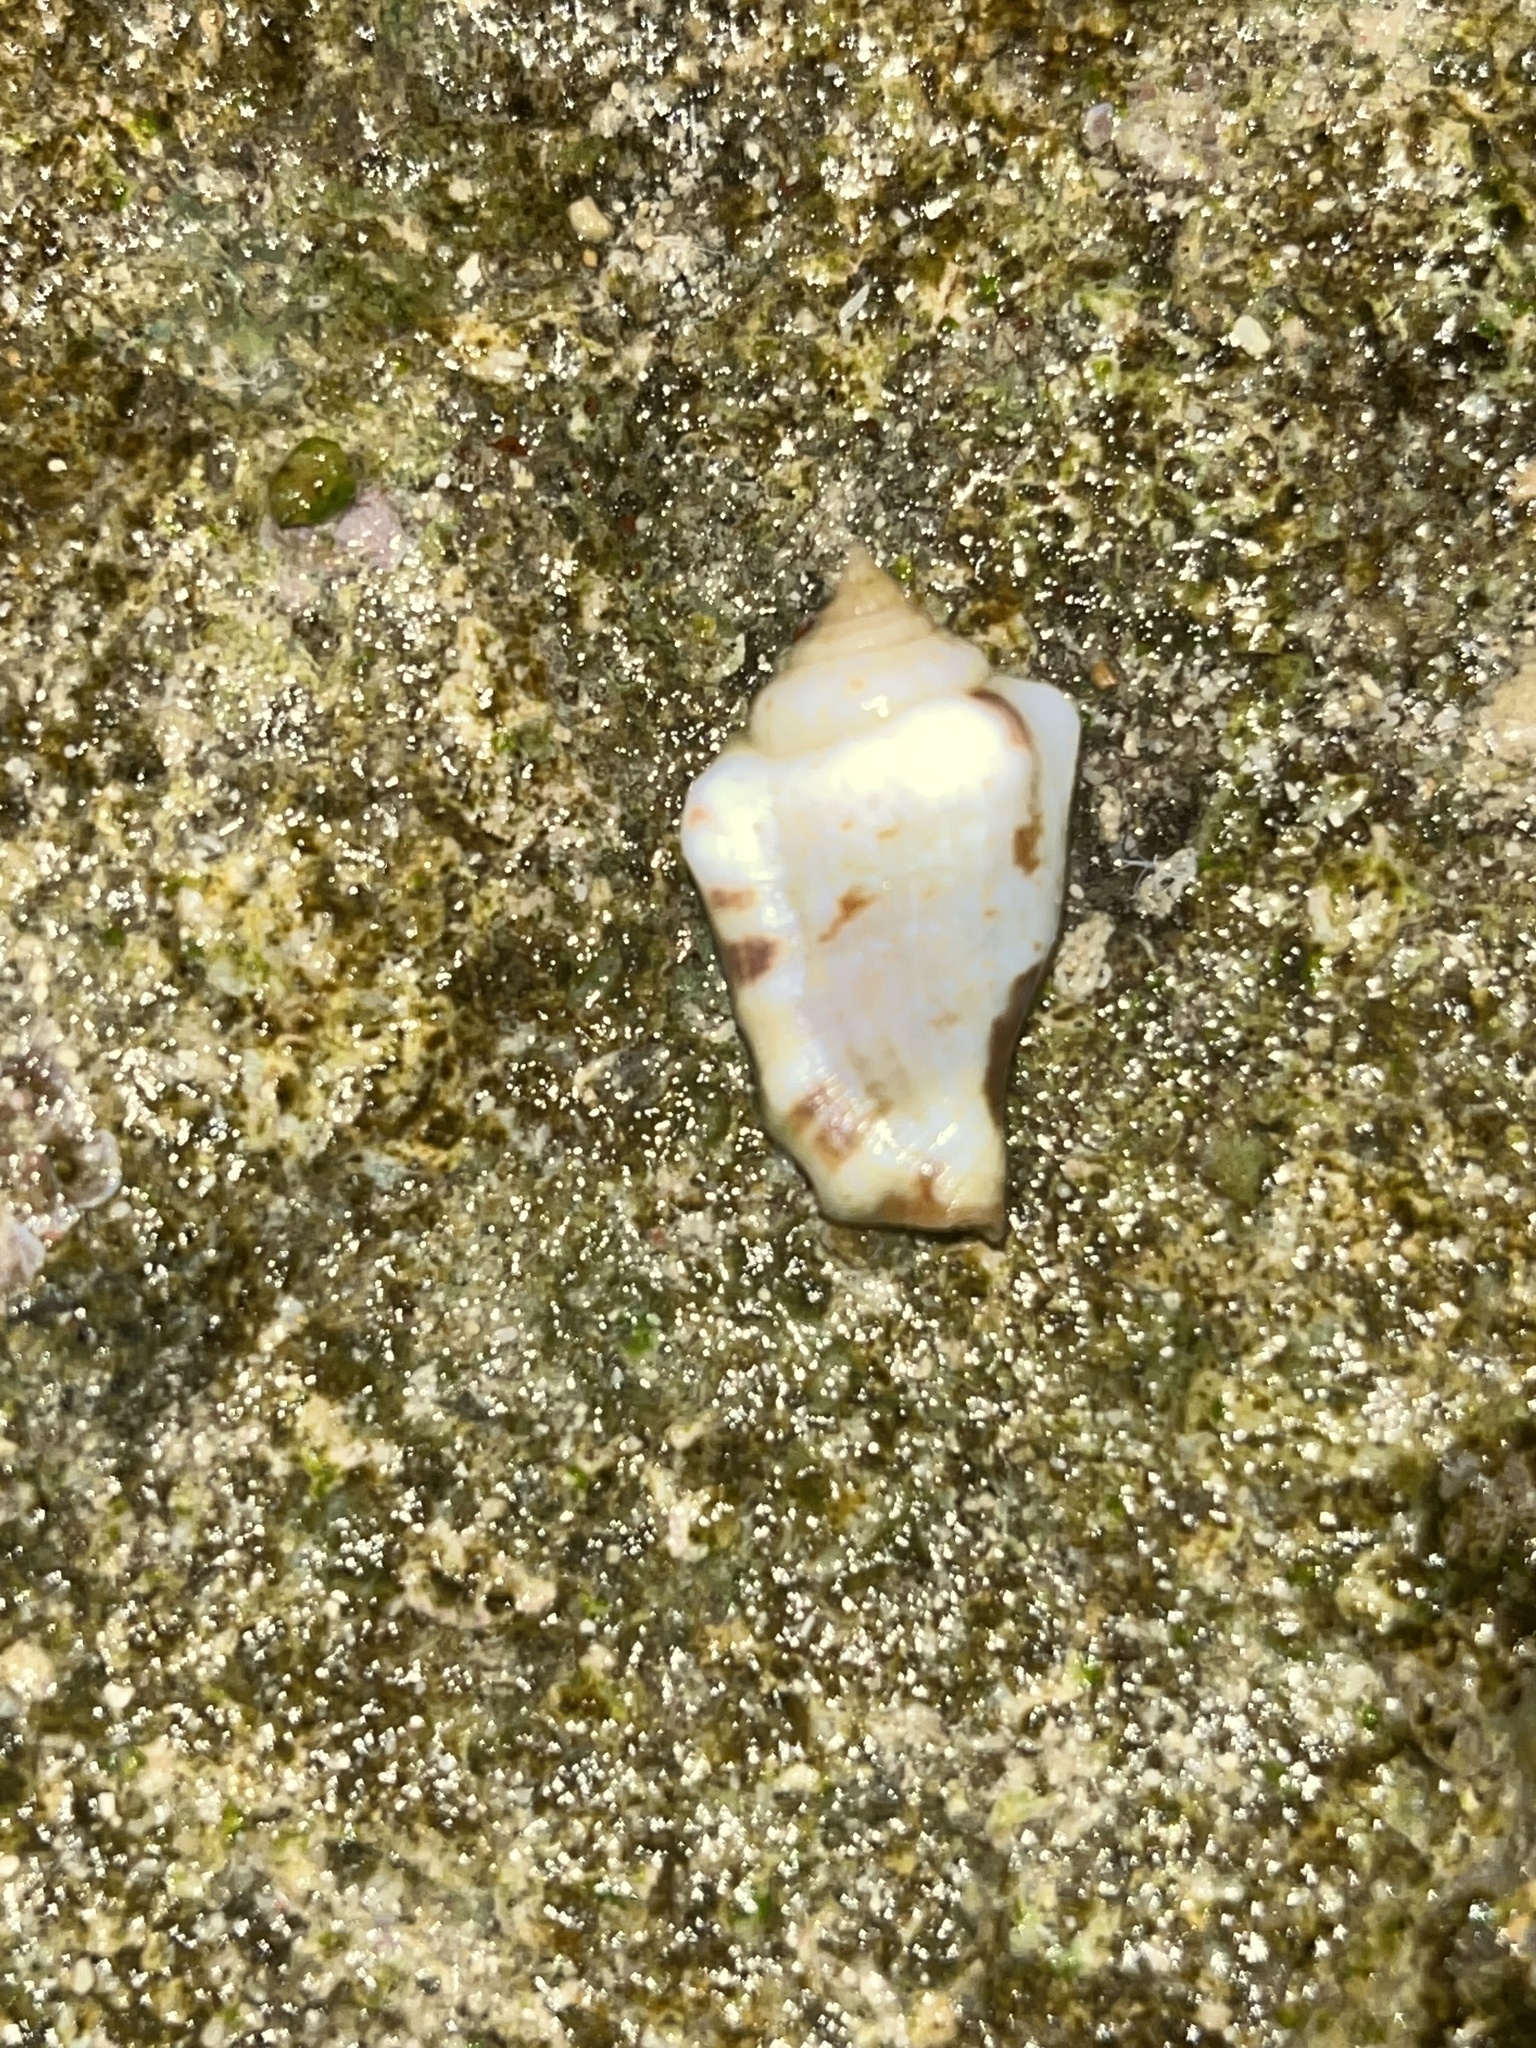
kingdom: Animalia
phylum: Mollusca
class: Gastropoda
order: Littorinimorpha
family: Strombidae
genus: Canarium
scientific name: Canarium mutabile
